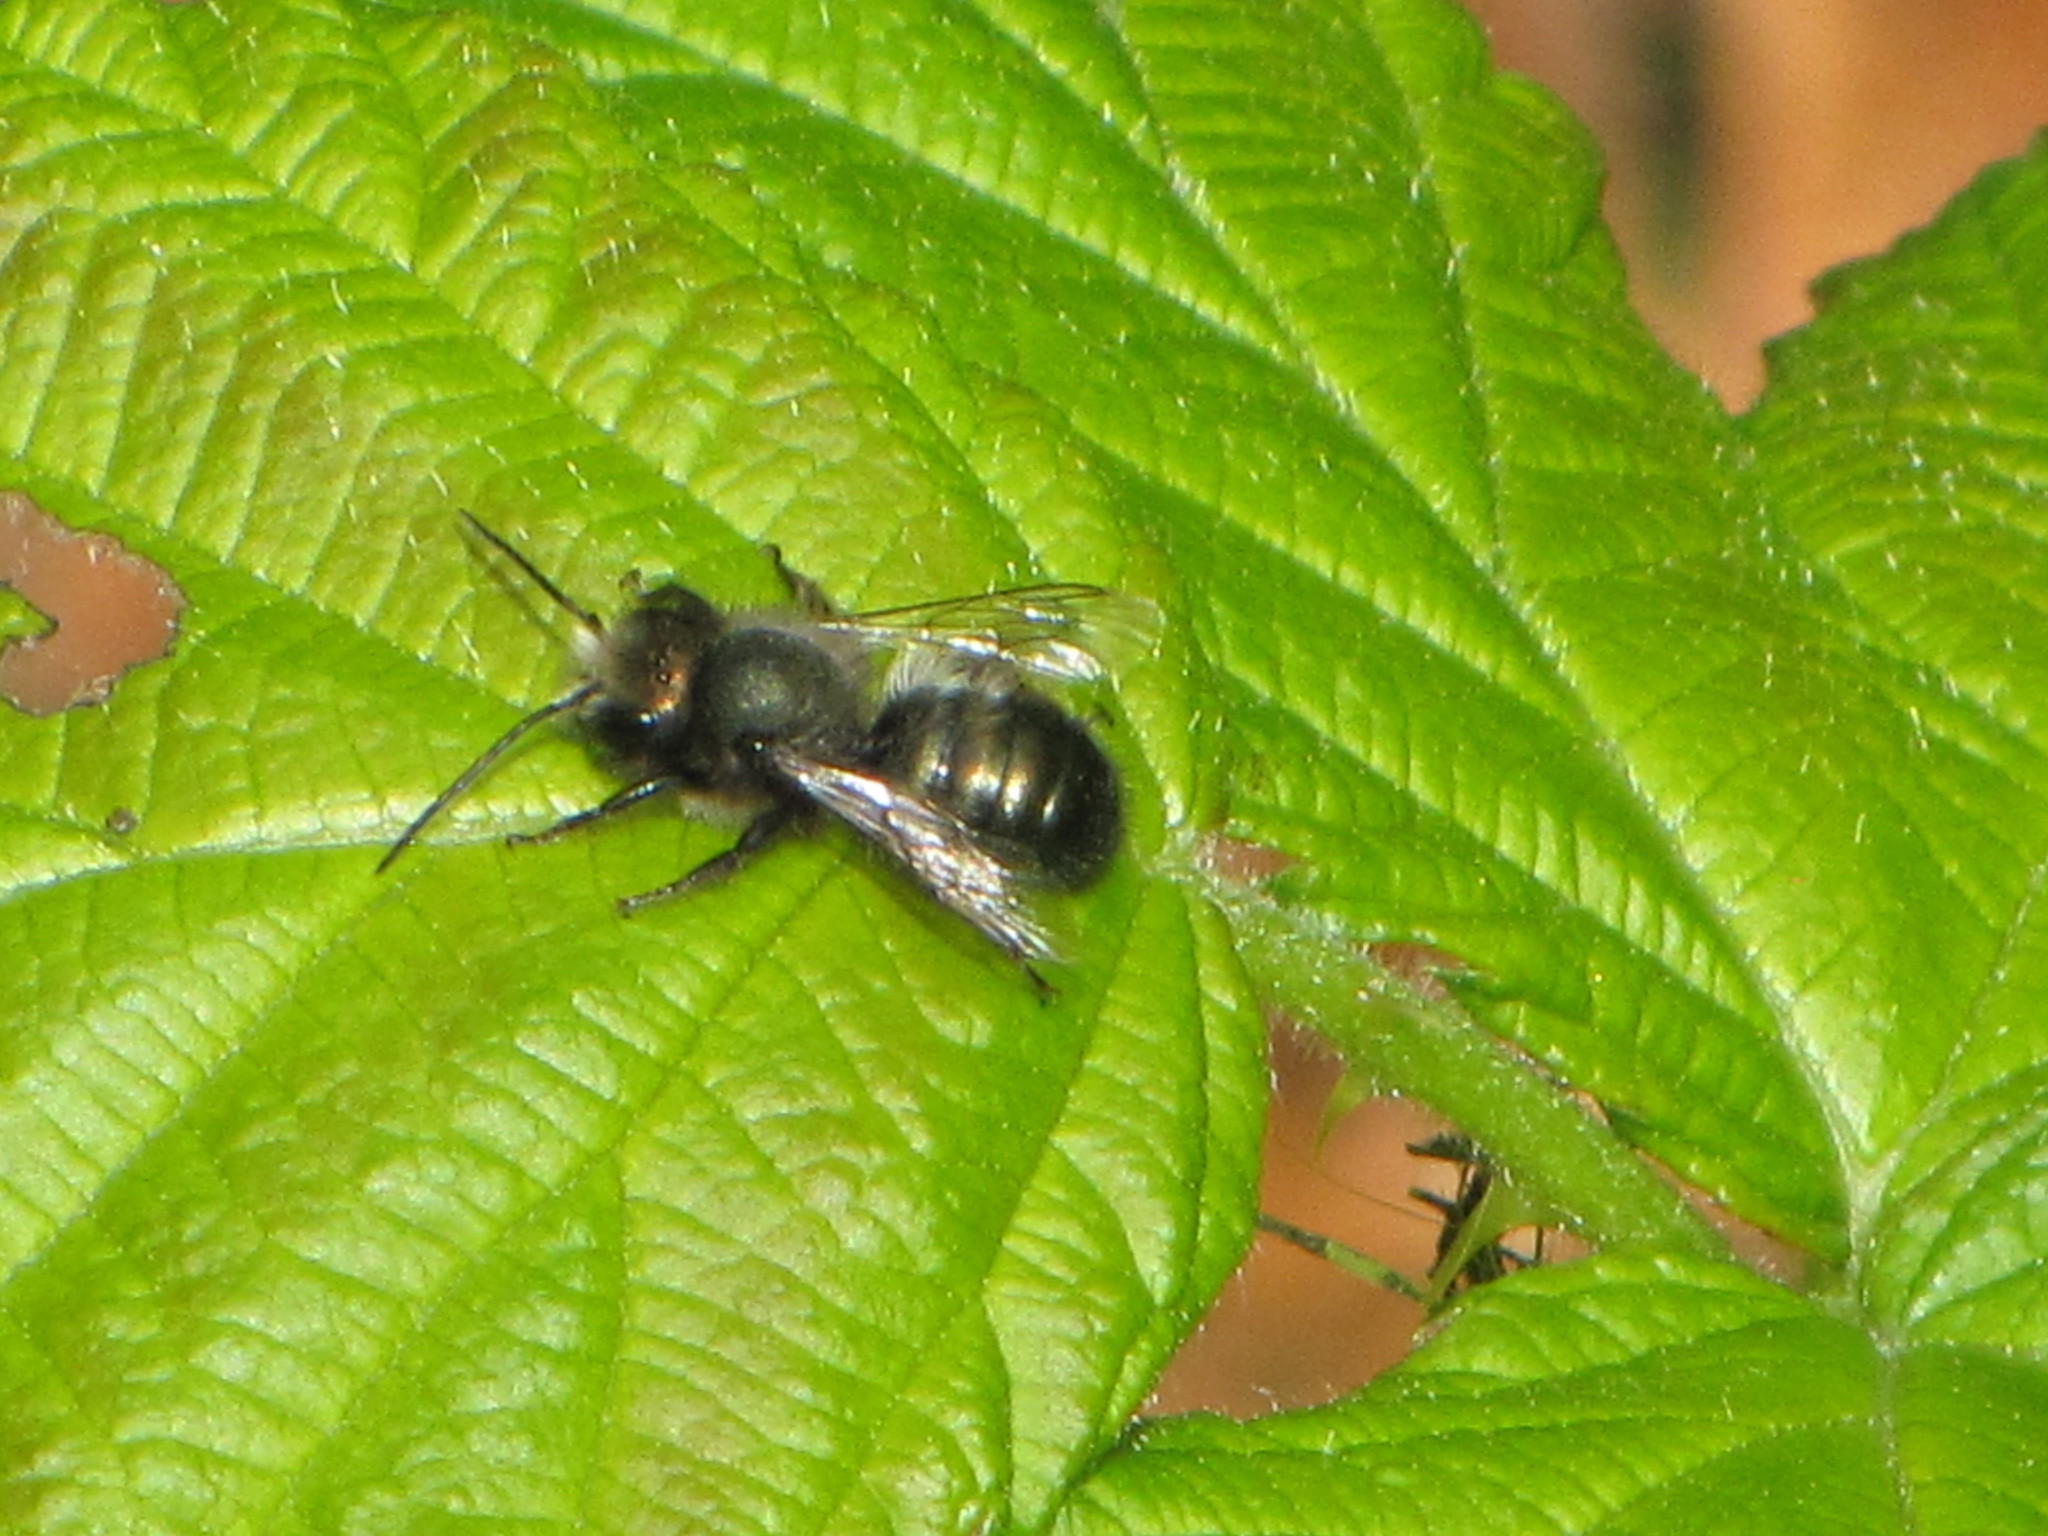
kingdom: Animalia
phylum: Arthropoda
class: Insecta
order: Hymenoptera
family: Megachilidae
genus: Osmia
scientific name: Osmia lignaria
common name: Blue orchard bee
